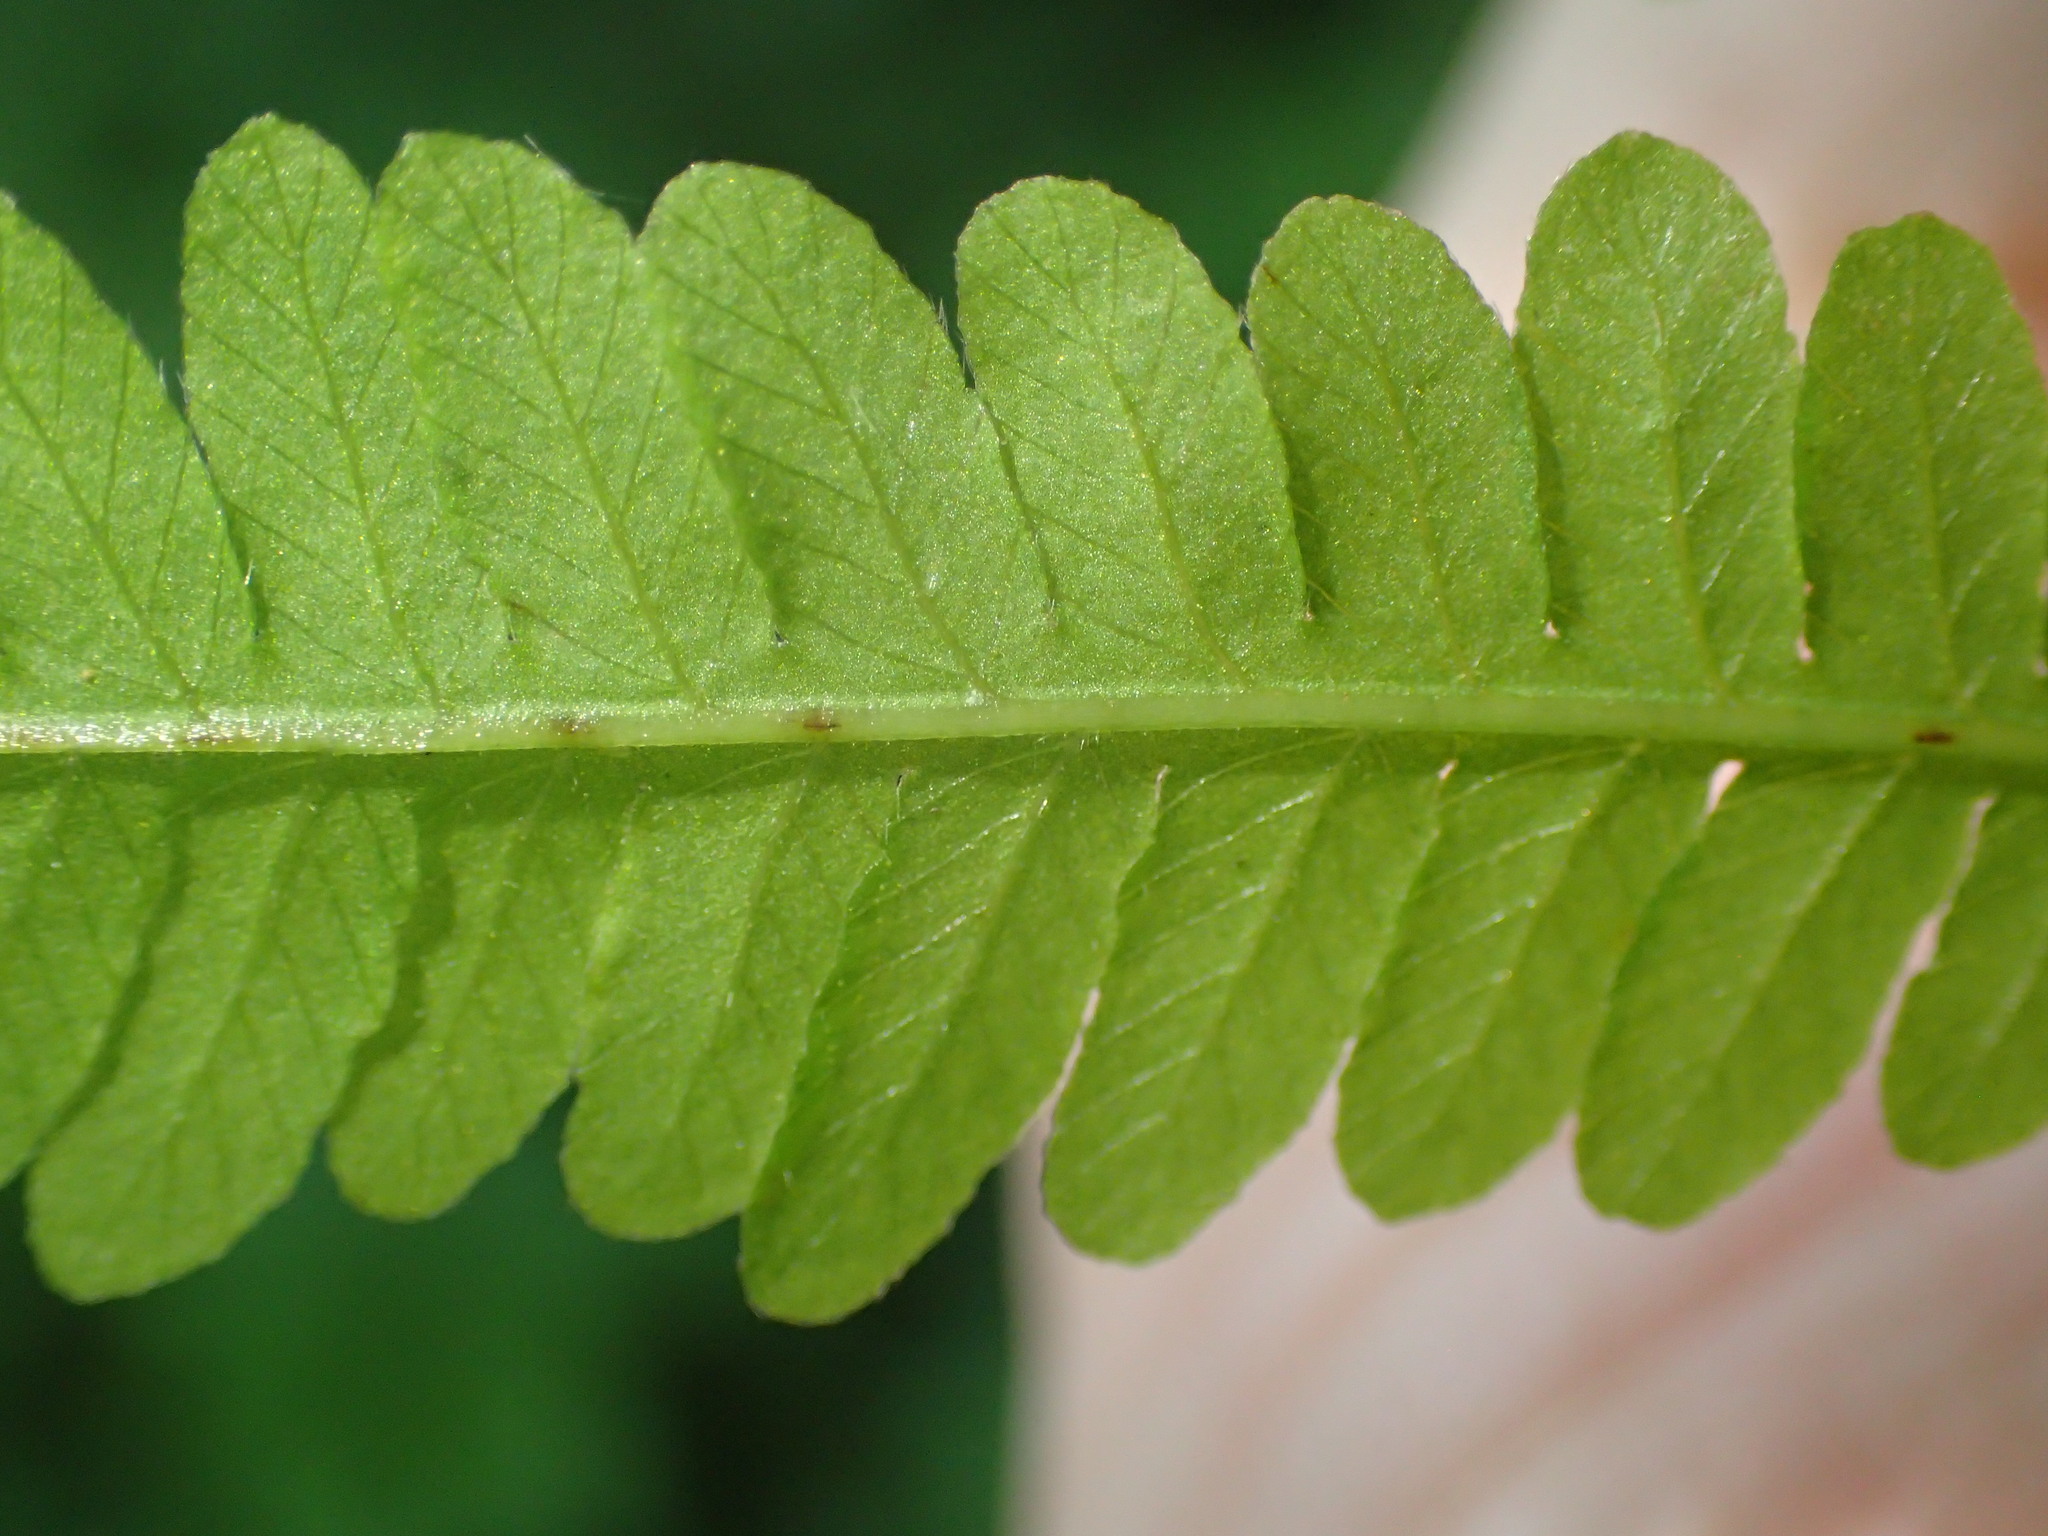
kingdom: Plantae
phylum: Tracheophyta
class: Polypodiopsida
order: Polypodiales
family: Thelypteridaceae
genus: Coryphopteris
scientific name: Coryphopteris simulata
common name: Bog fern
